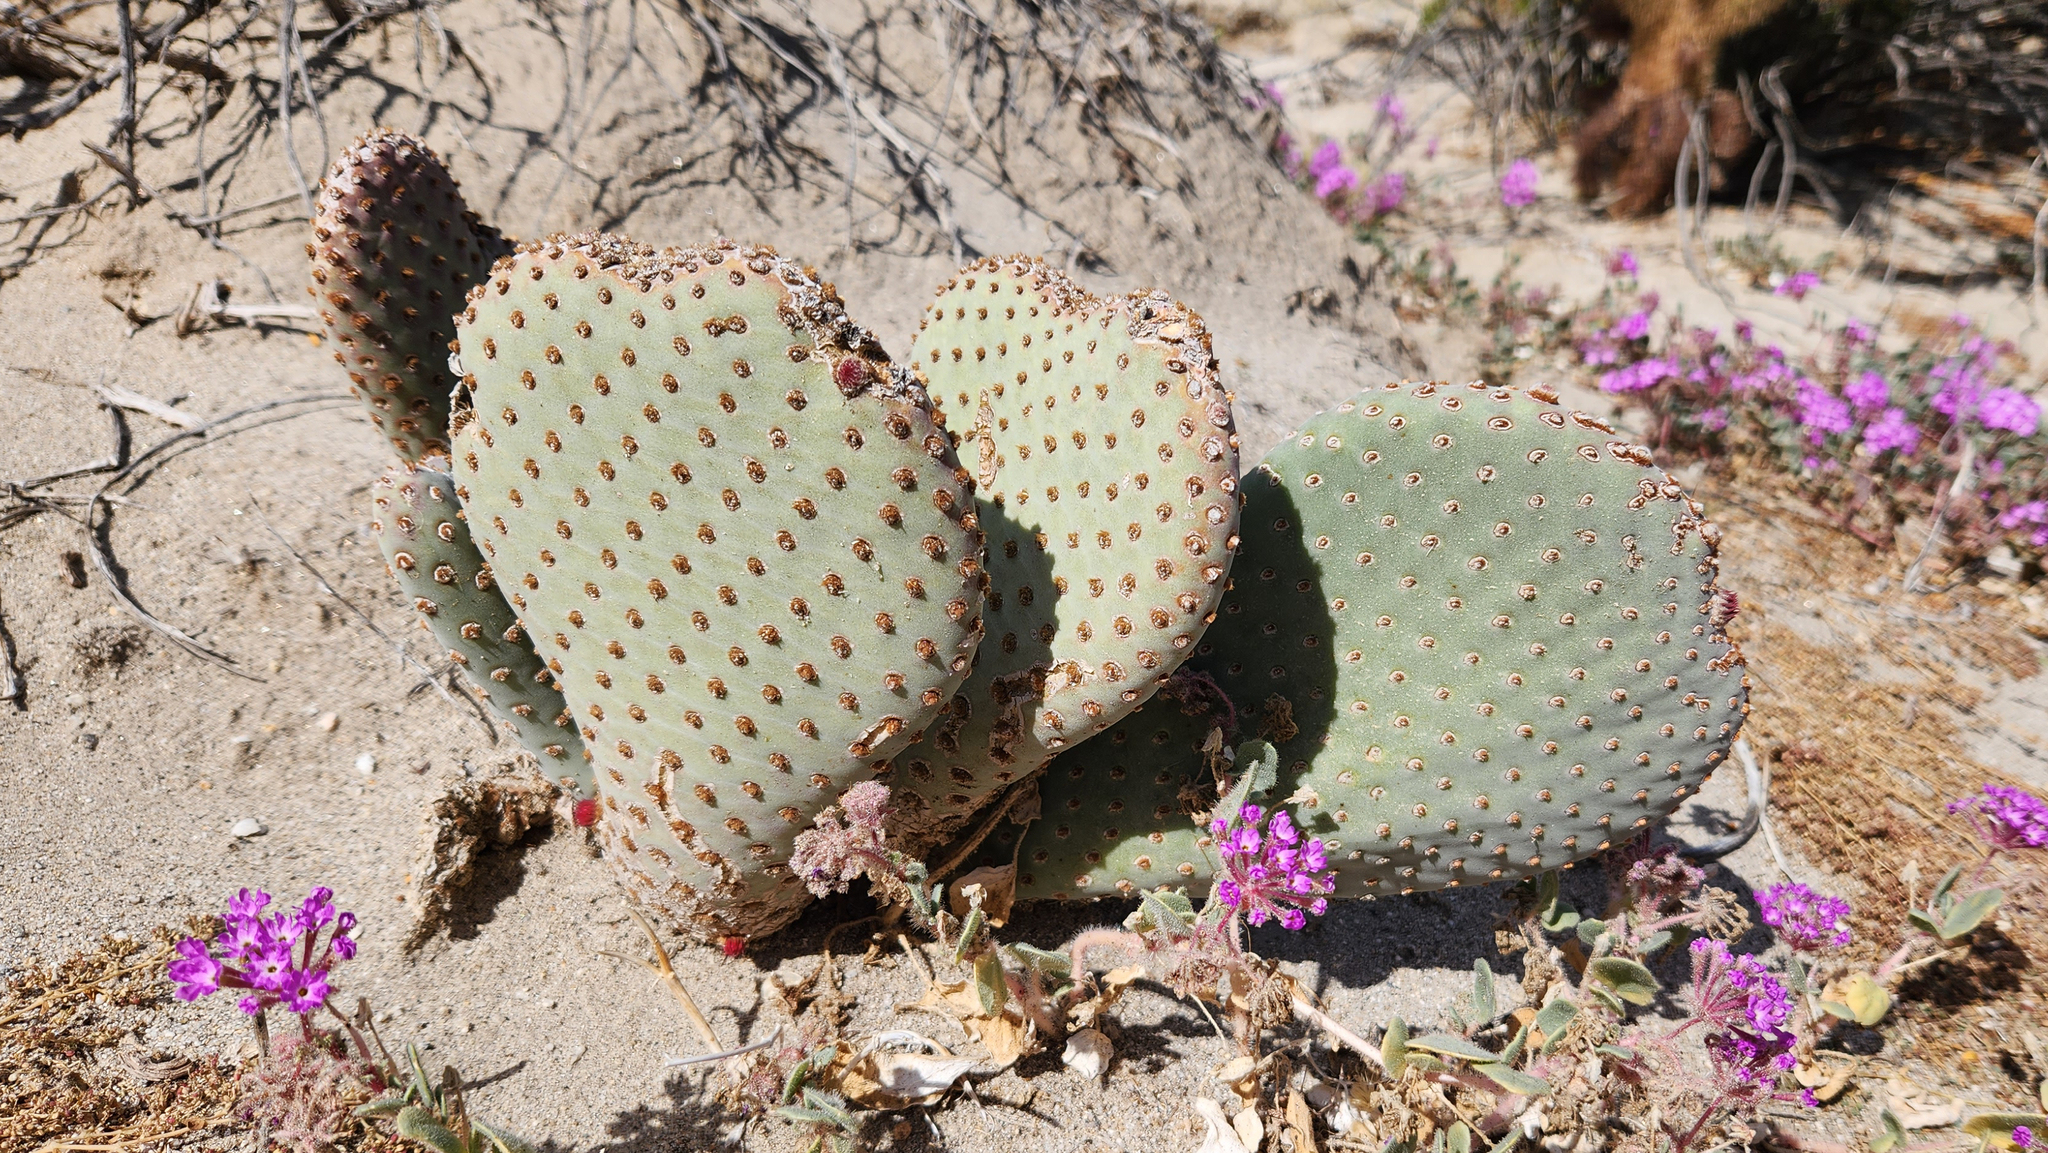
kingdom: Plantae
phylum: Tracheophyta
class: Magnoliopsida
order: Caryophyllales
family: Cactaceae
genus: Opuntia
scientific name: Opuntia basilaris
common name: Beavertail prickly-pear
